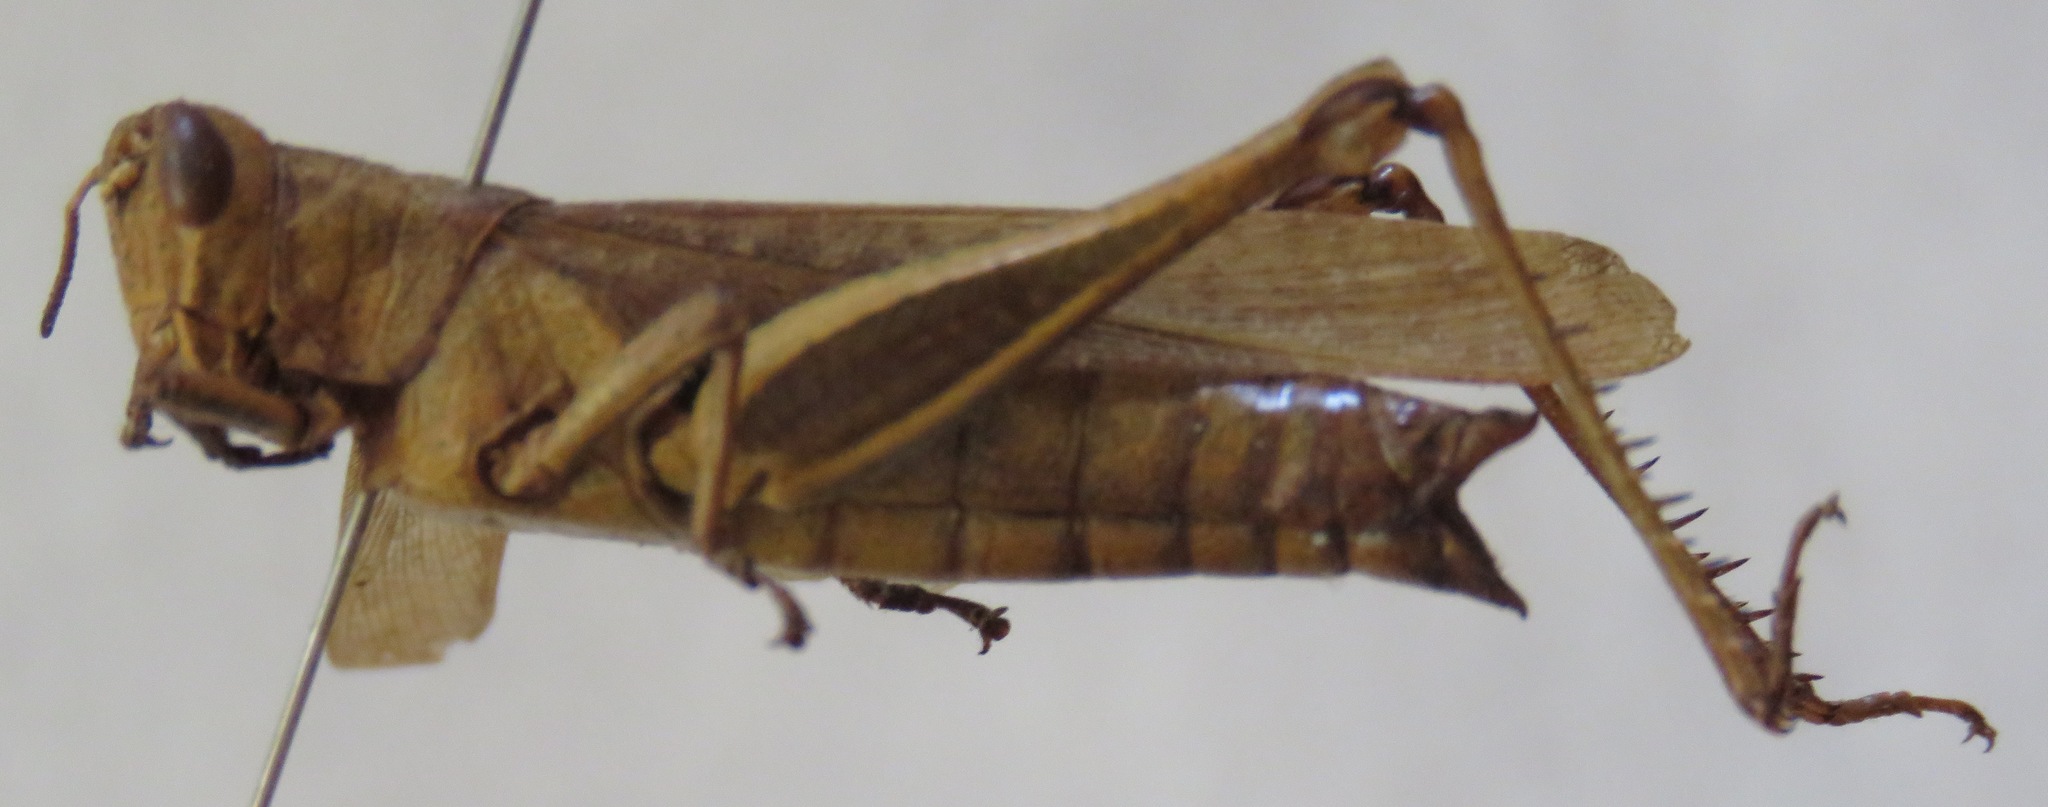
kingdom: Animalia
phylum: Arthropoda
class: Insecta
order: Orthoptera
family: Acrididae
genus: Abracris
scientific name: Abracris flavolineata
